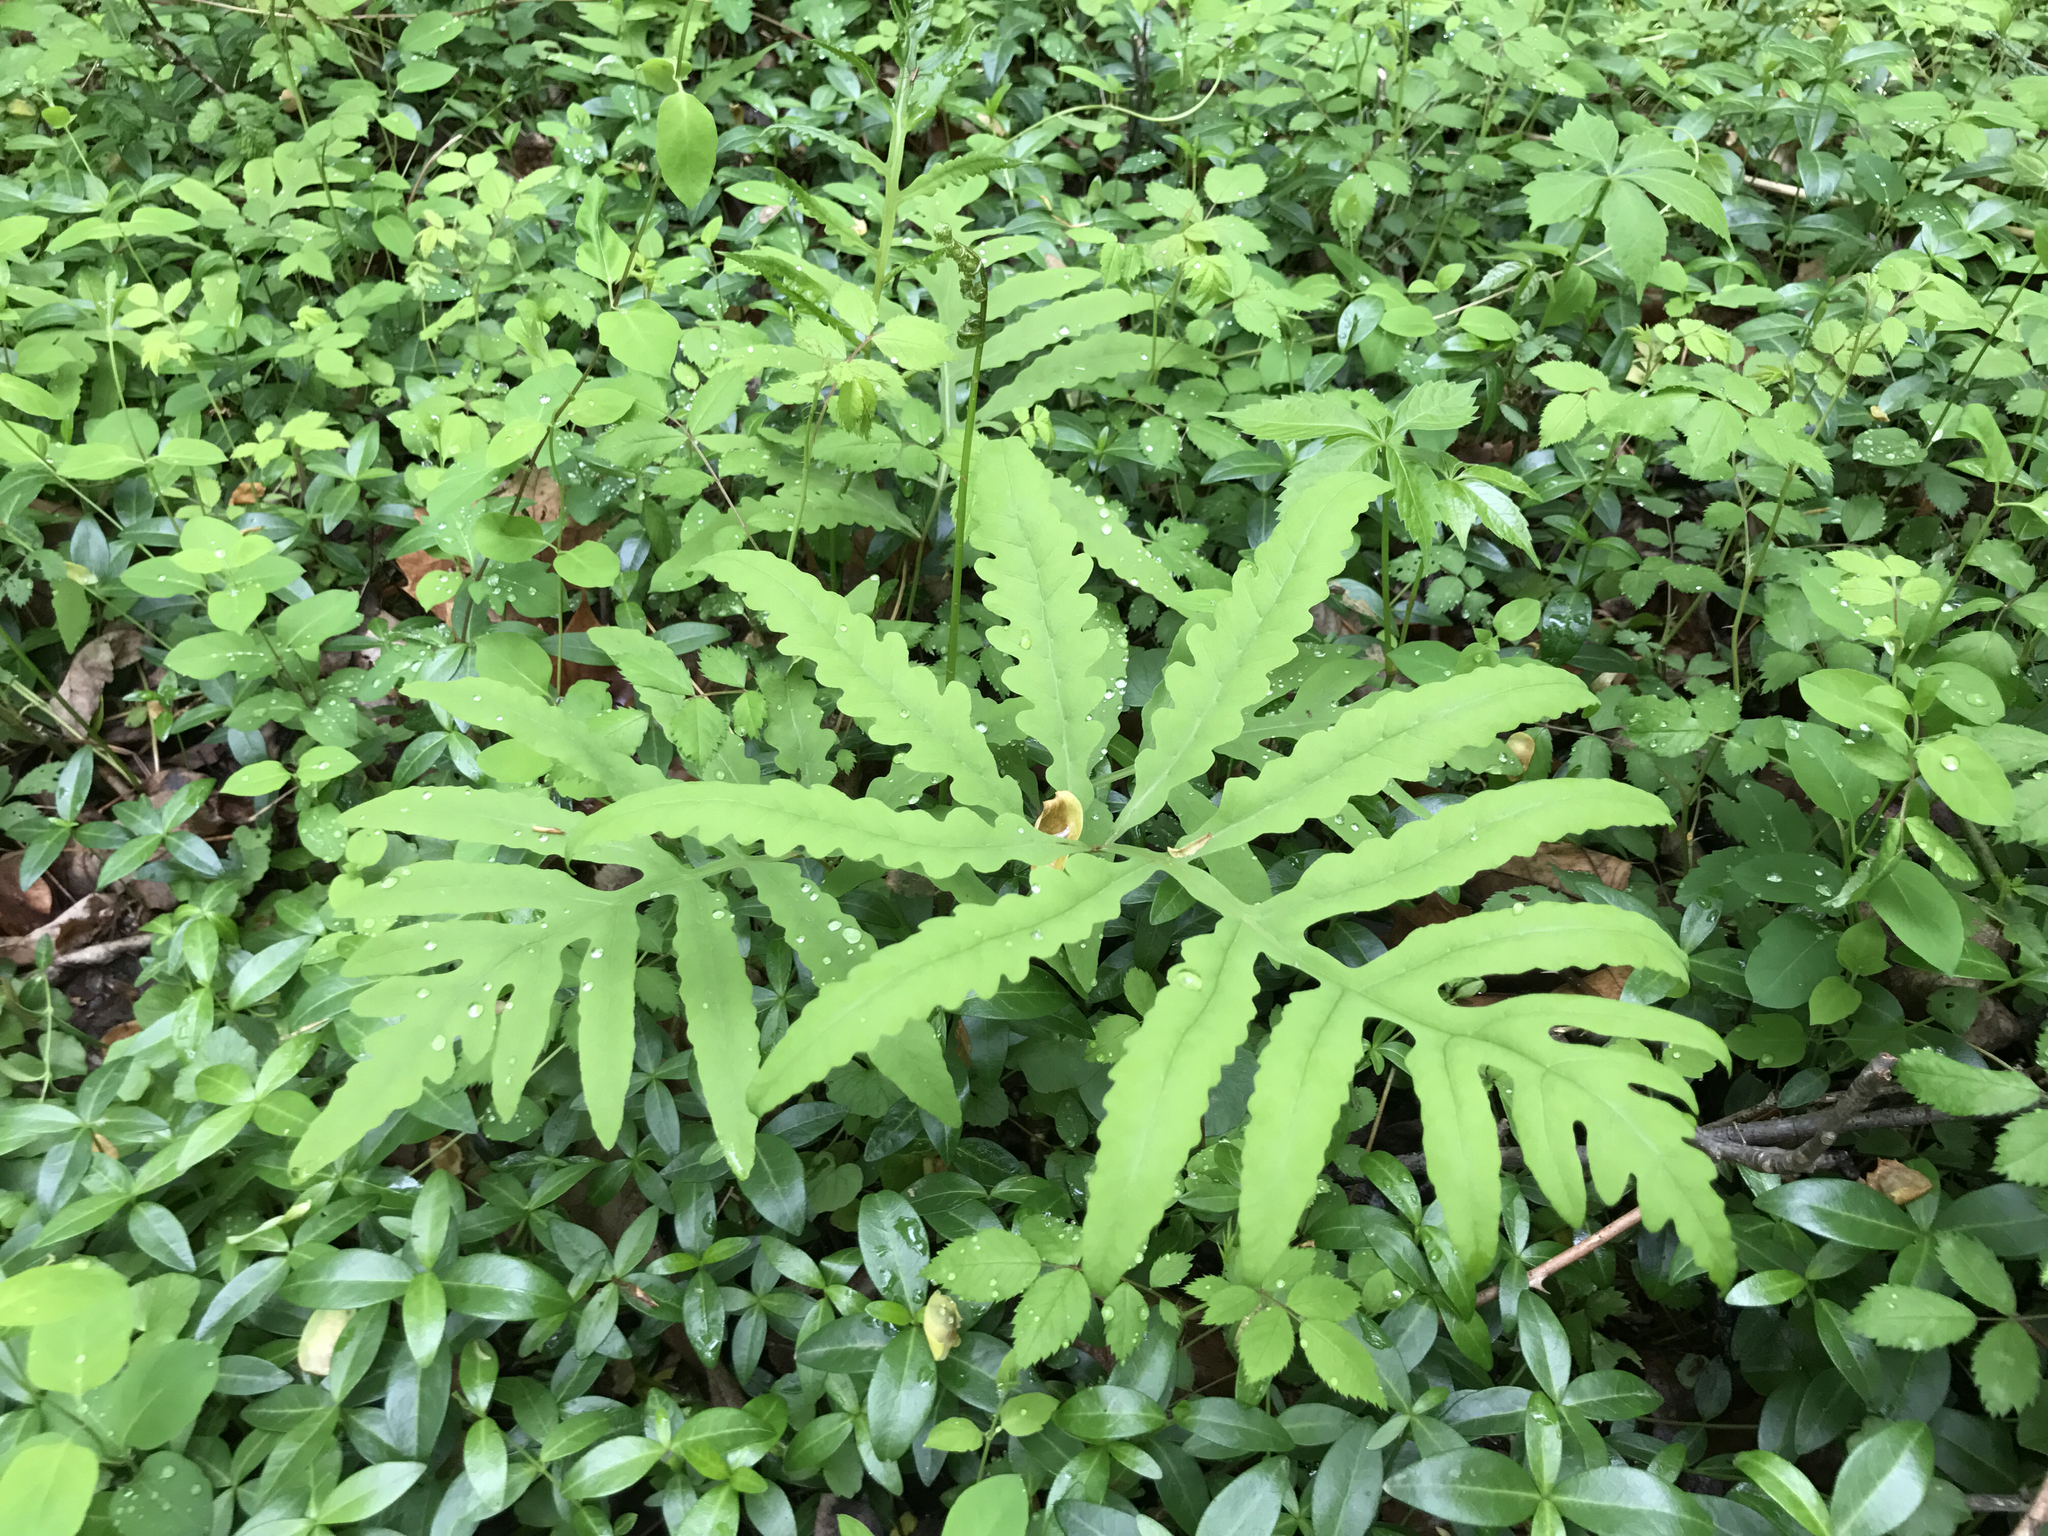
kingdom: Plantae
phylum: Tracheophyta
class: Polypodiopsida
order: Polypodiales
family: Onocleaceae
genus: Onoclea
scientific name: Onoclea sensibilis
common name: Sensitive fern
